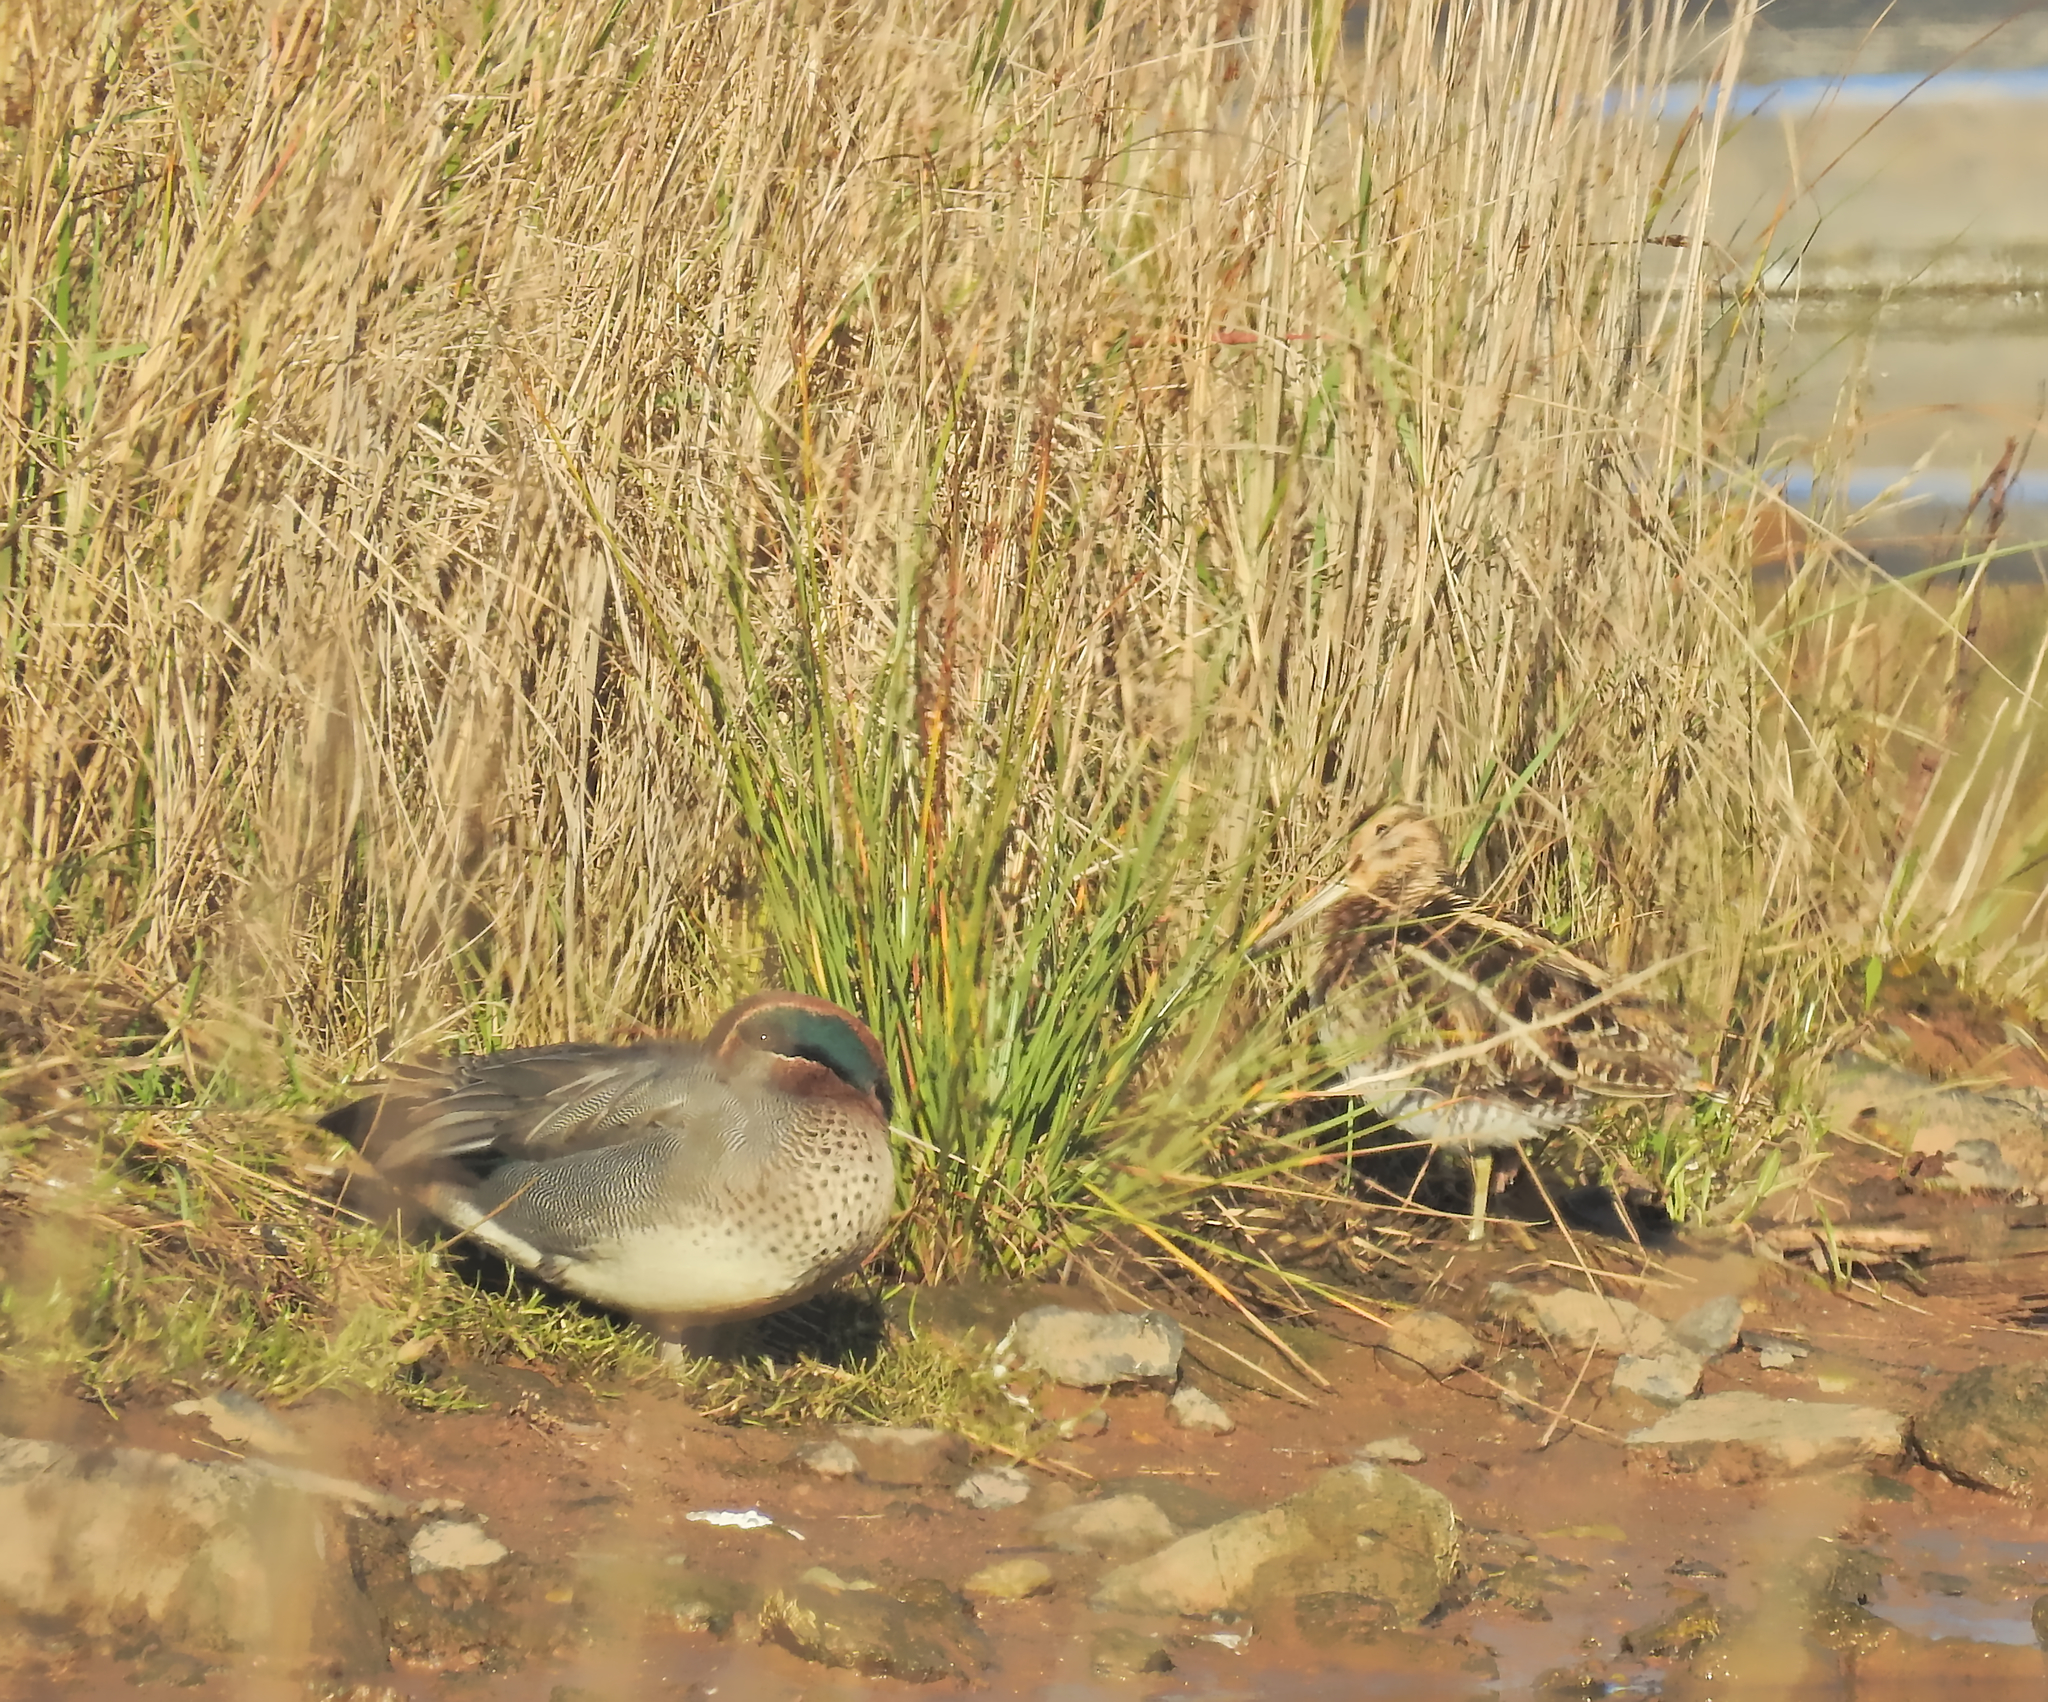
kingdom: Animalia
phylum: Chordata
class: Aves
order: Charadriiformes
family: Scolopacidae
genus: Gallinago
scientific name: Gallinago gallinago
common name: Common snipe
